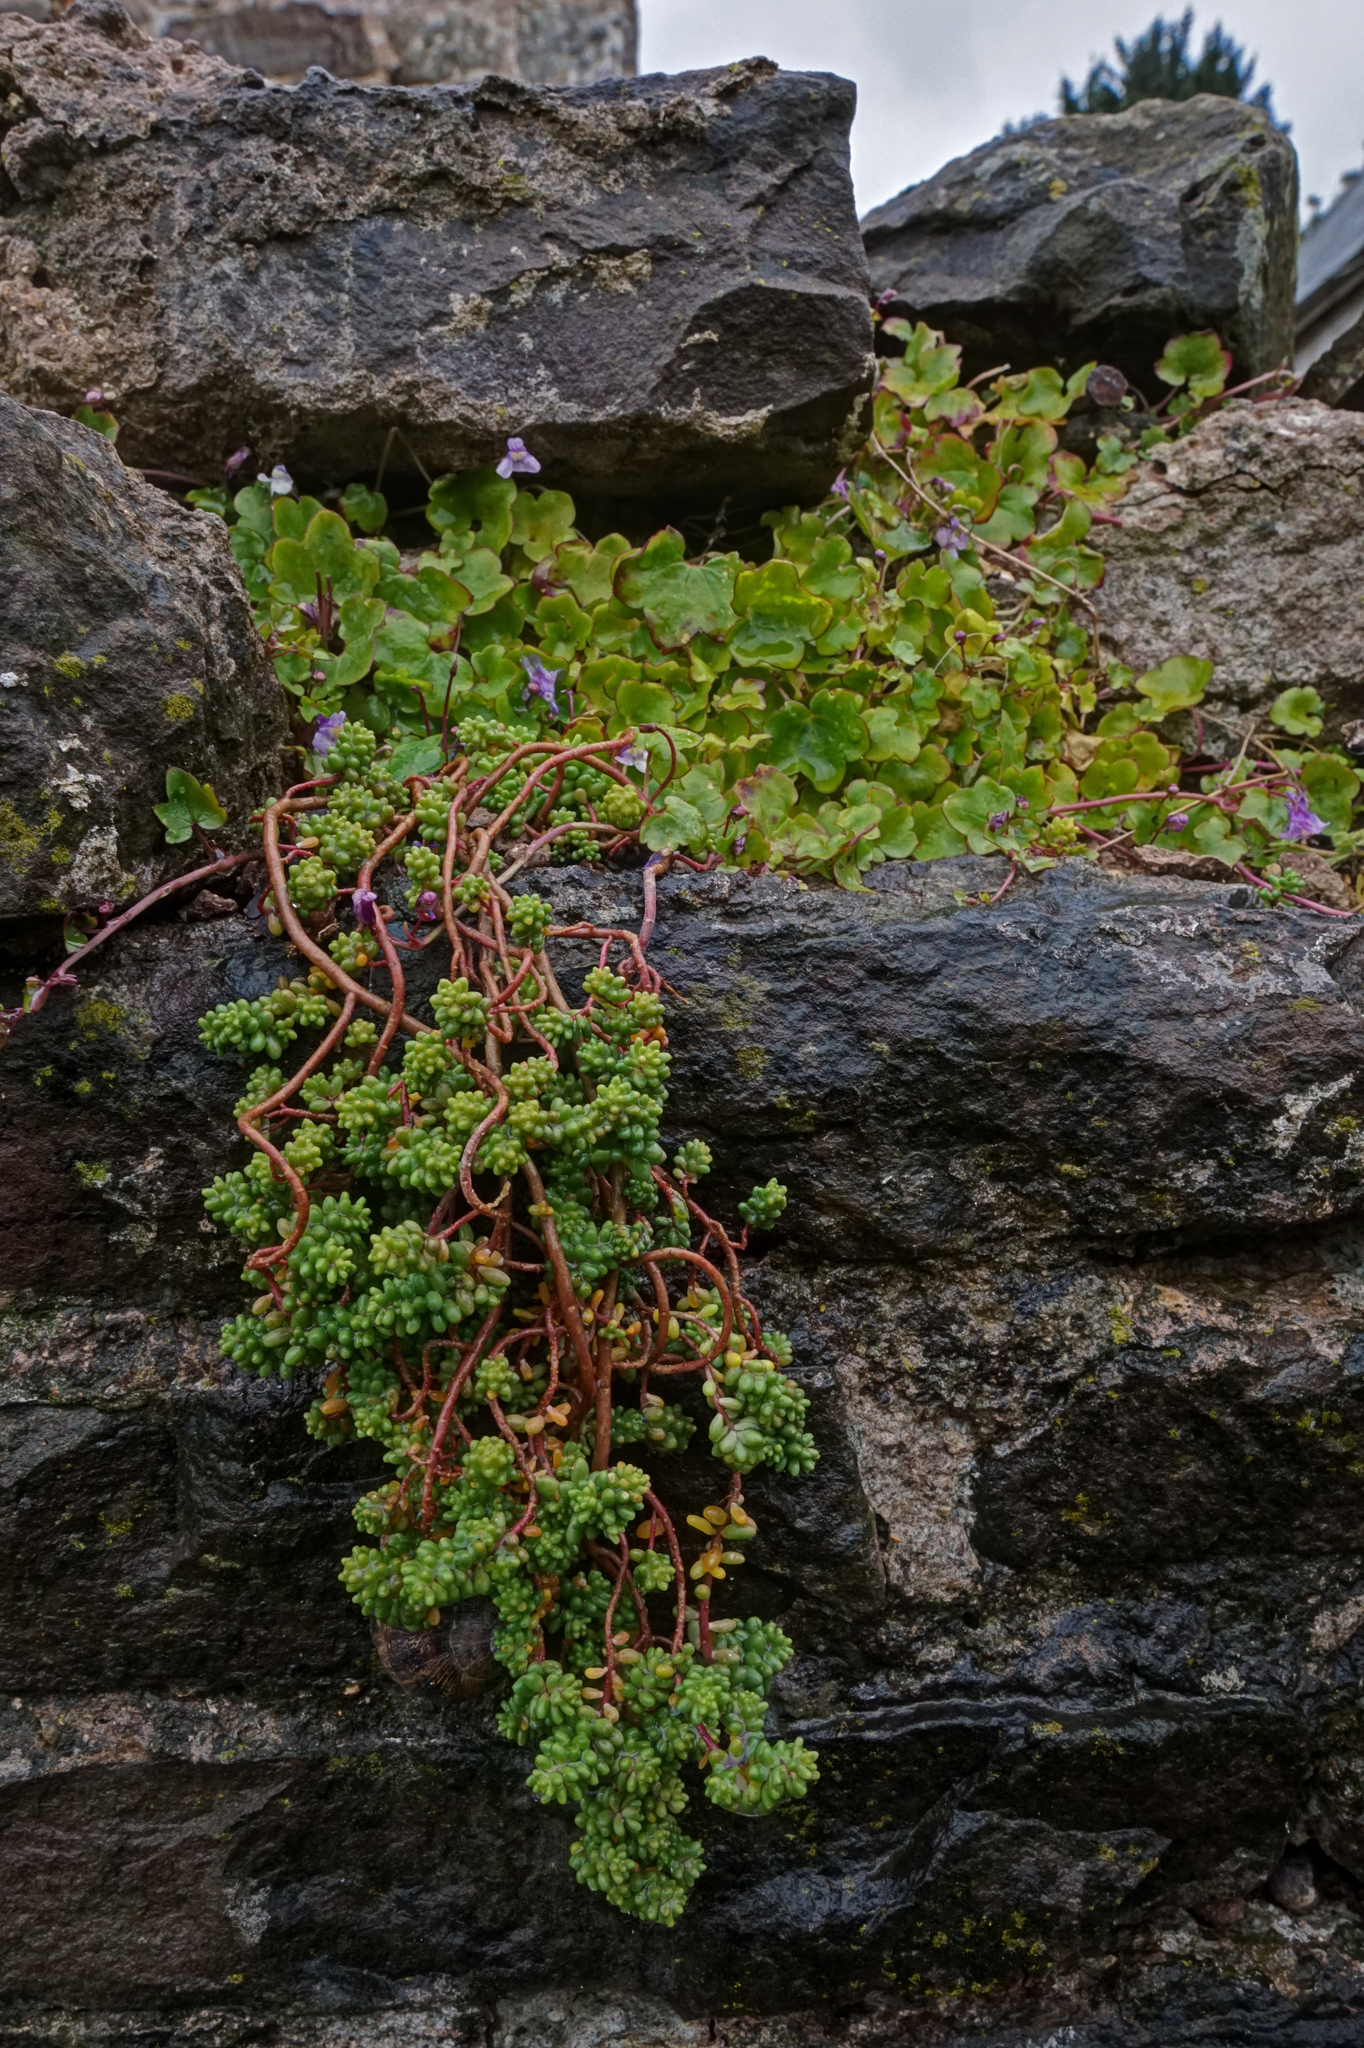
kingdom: Plantae
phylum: Tracheophyta
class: Magnoliopsida
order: Saxifragales
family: Crassulaceae
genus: Sedum
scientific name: Sedum album
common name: White stonecrop
